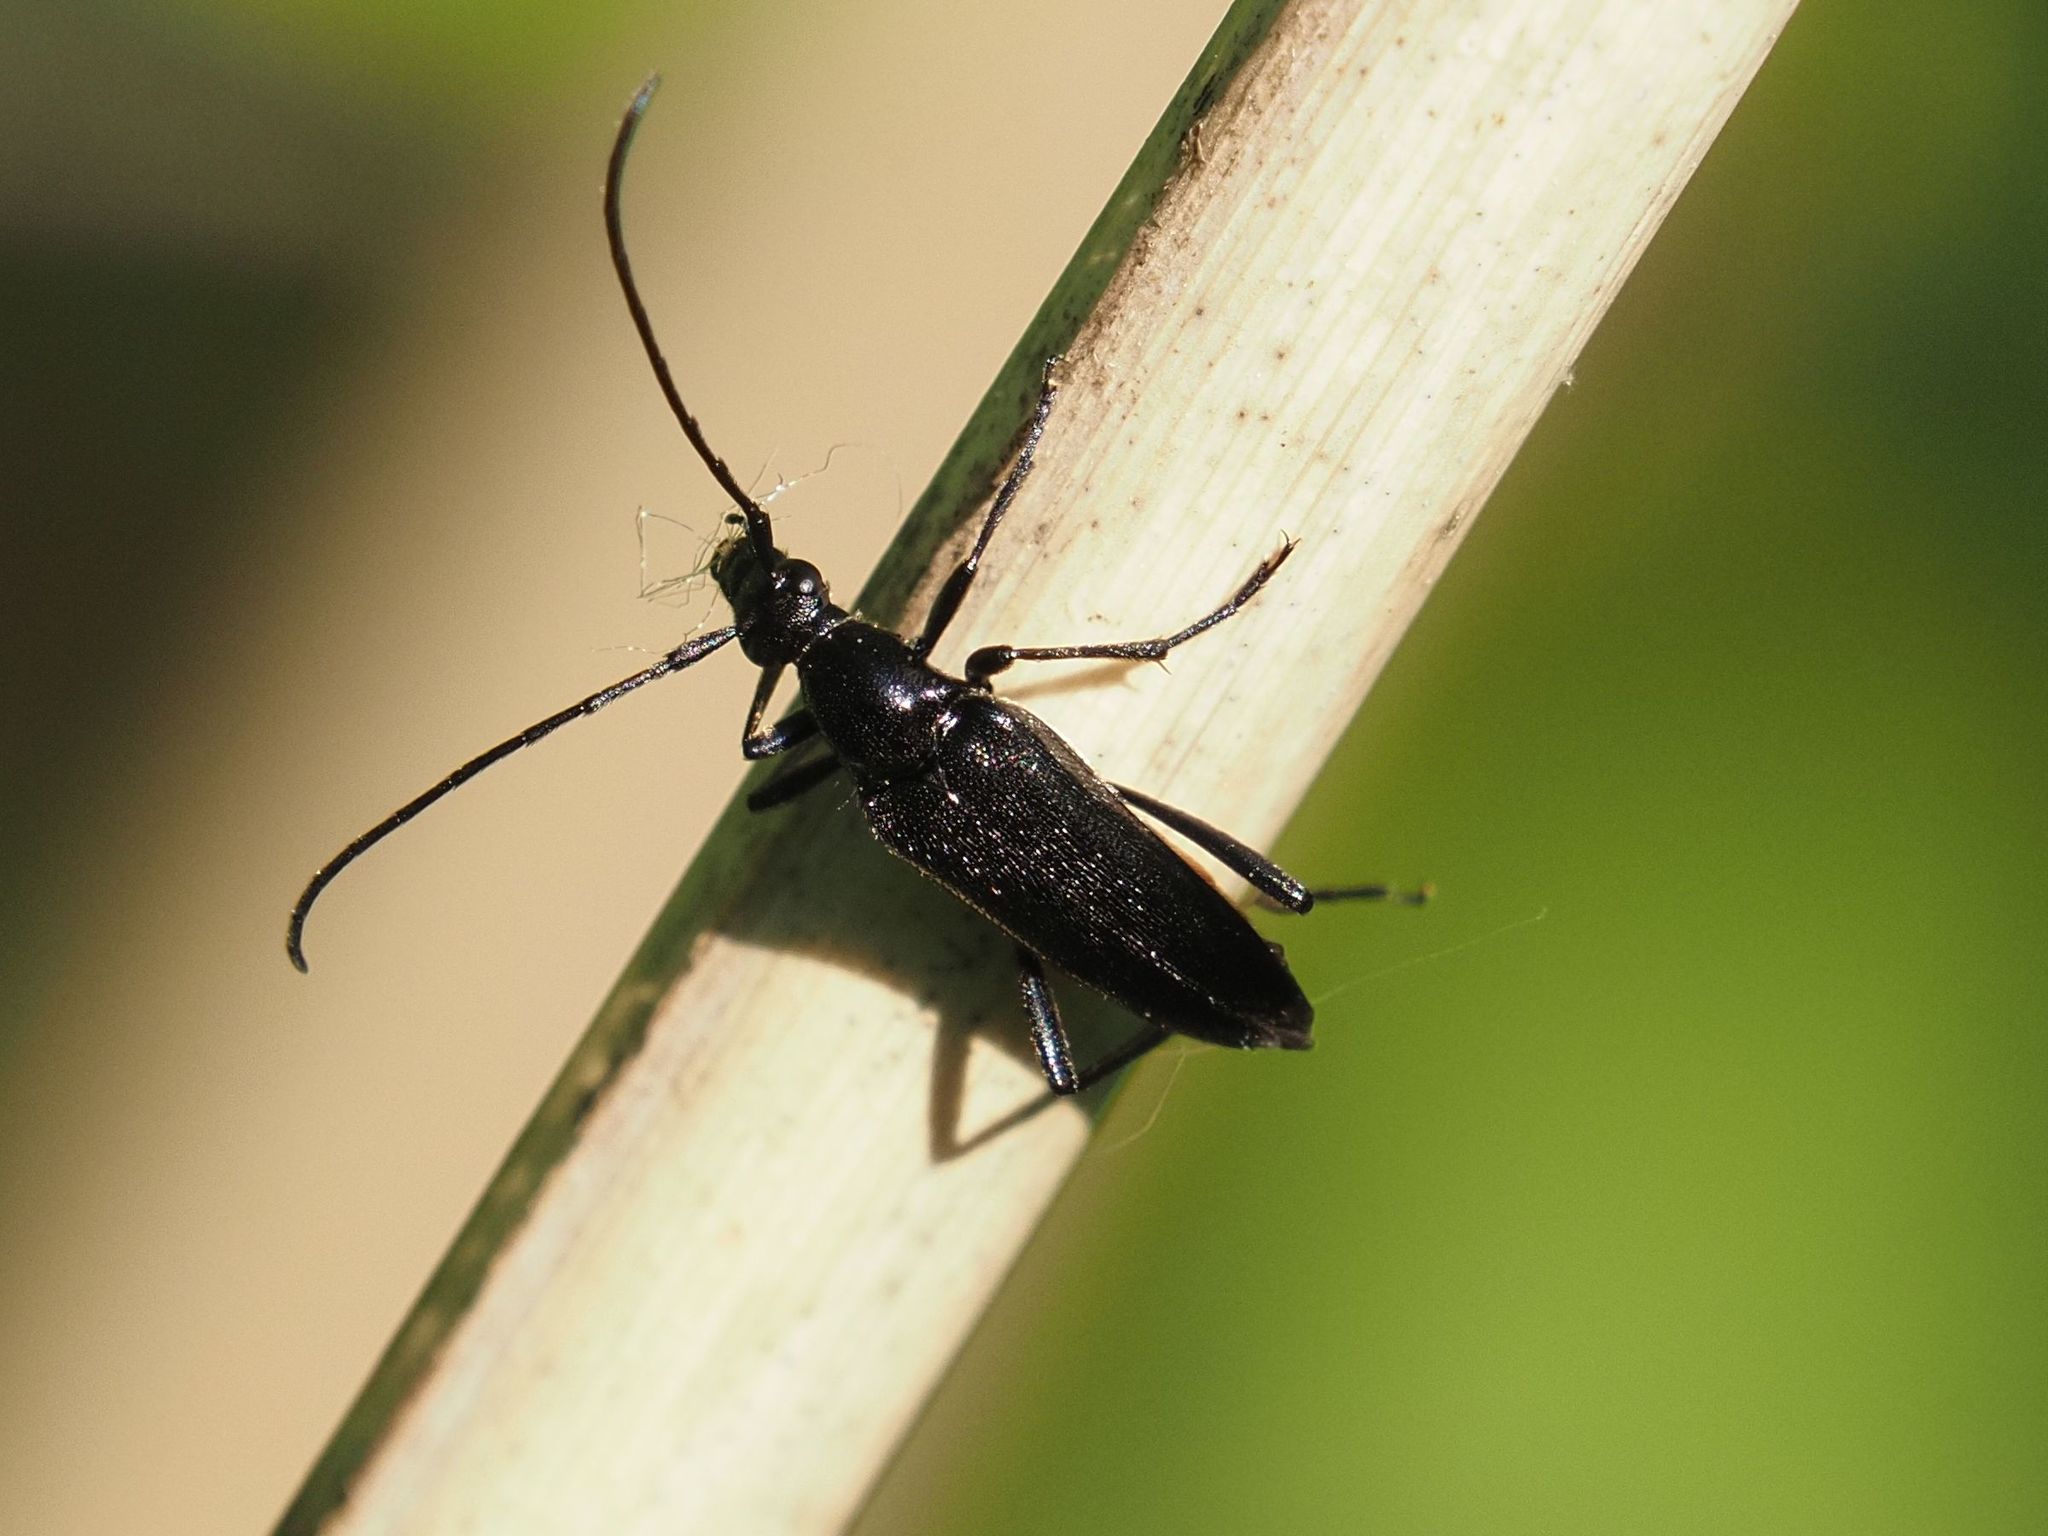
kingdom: Animalia
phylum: Arthropoda
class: Insecta
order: Coleoptera
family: Cerambycidae
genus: Stenurella
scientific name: Stenurella nigra
